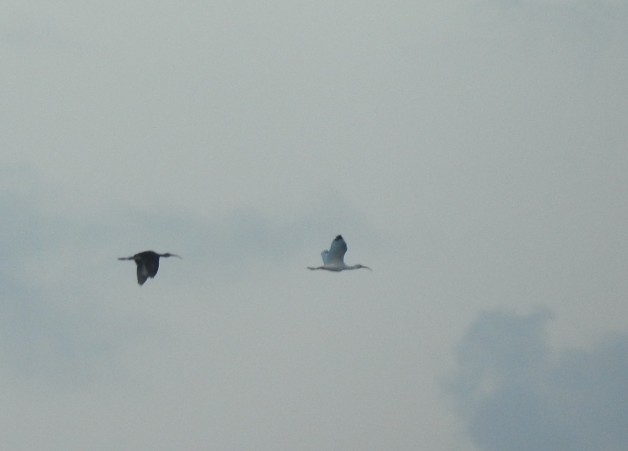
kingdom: Animalia
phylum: Chordata
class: Aves
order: Pelecaniformes
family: Threskiornithidae
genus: Eudocimus
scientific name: Eudocimus albus
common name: White ibis
